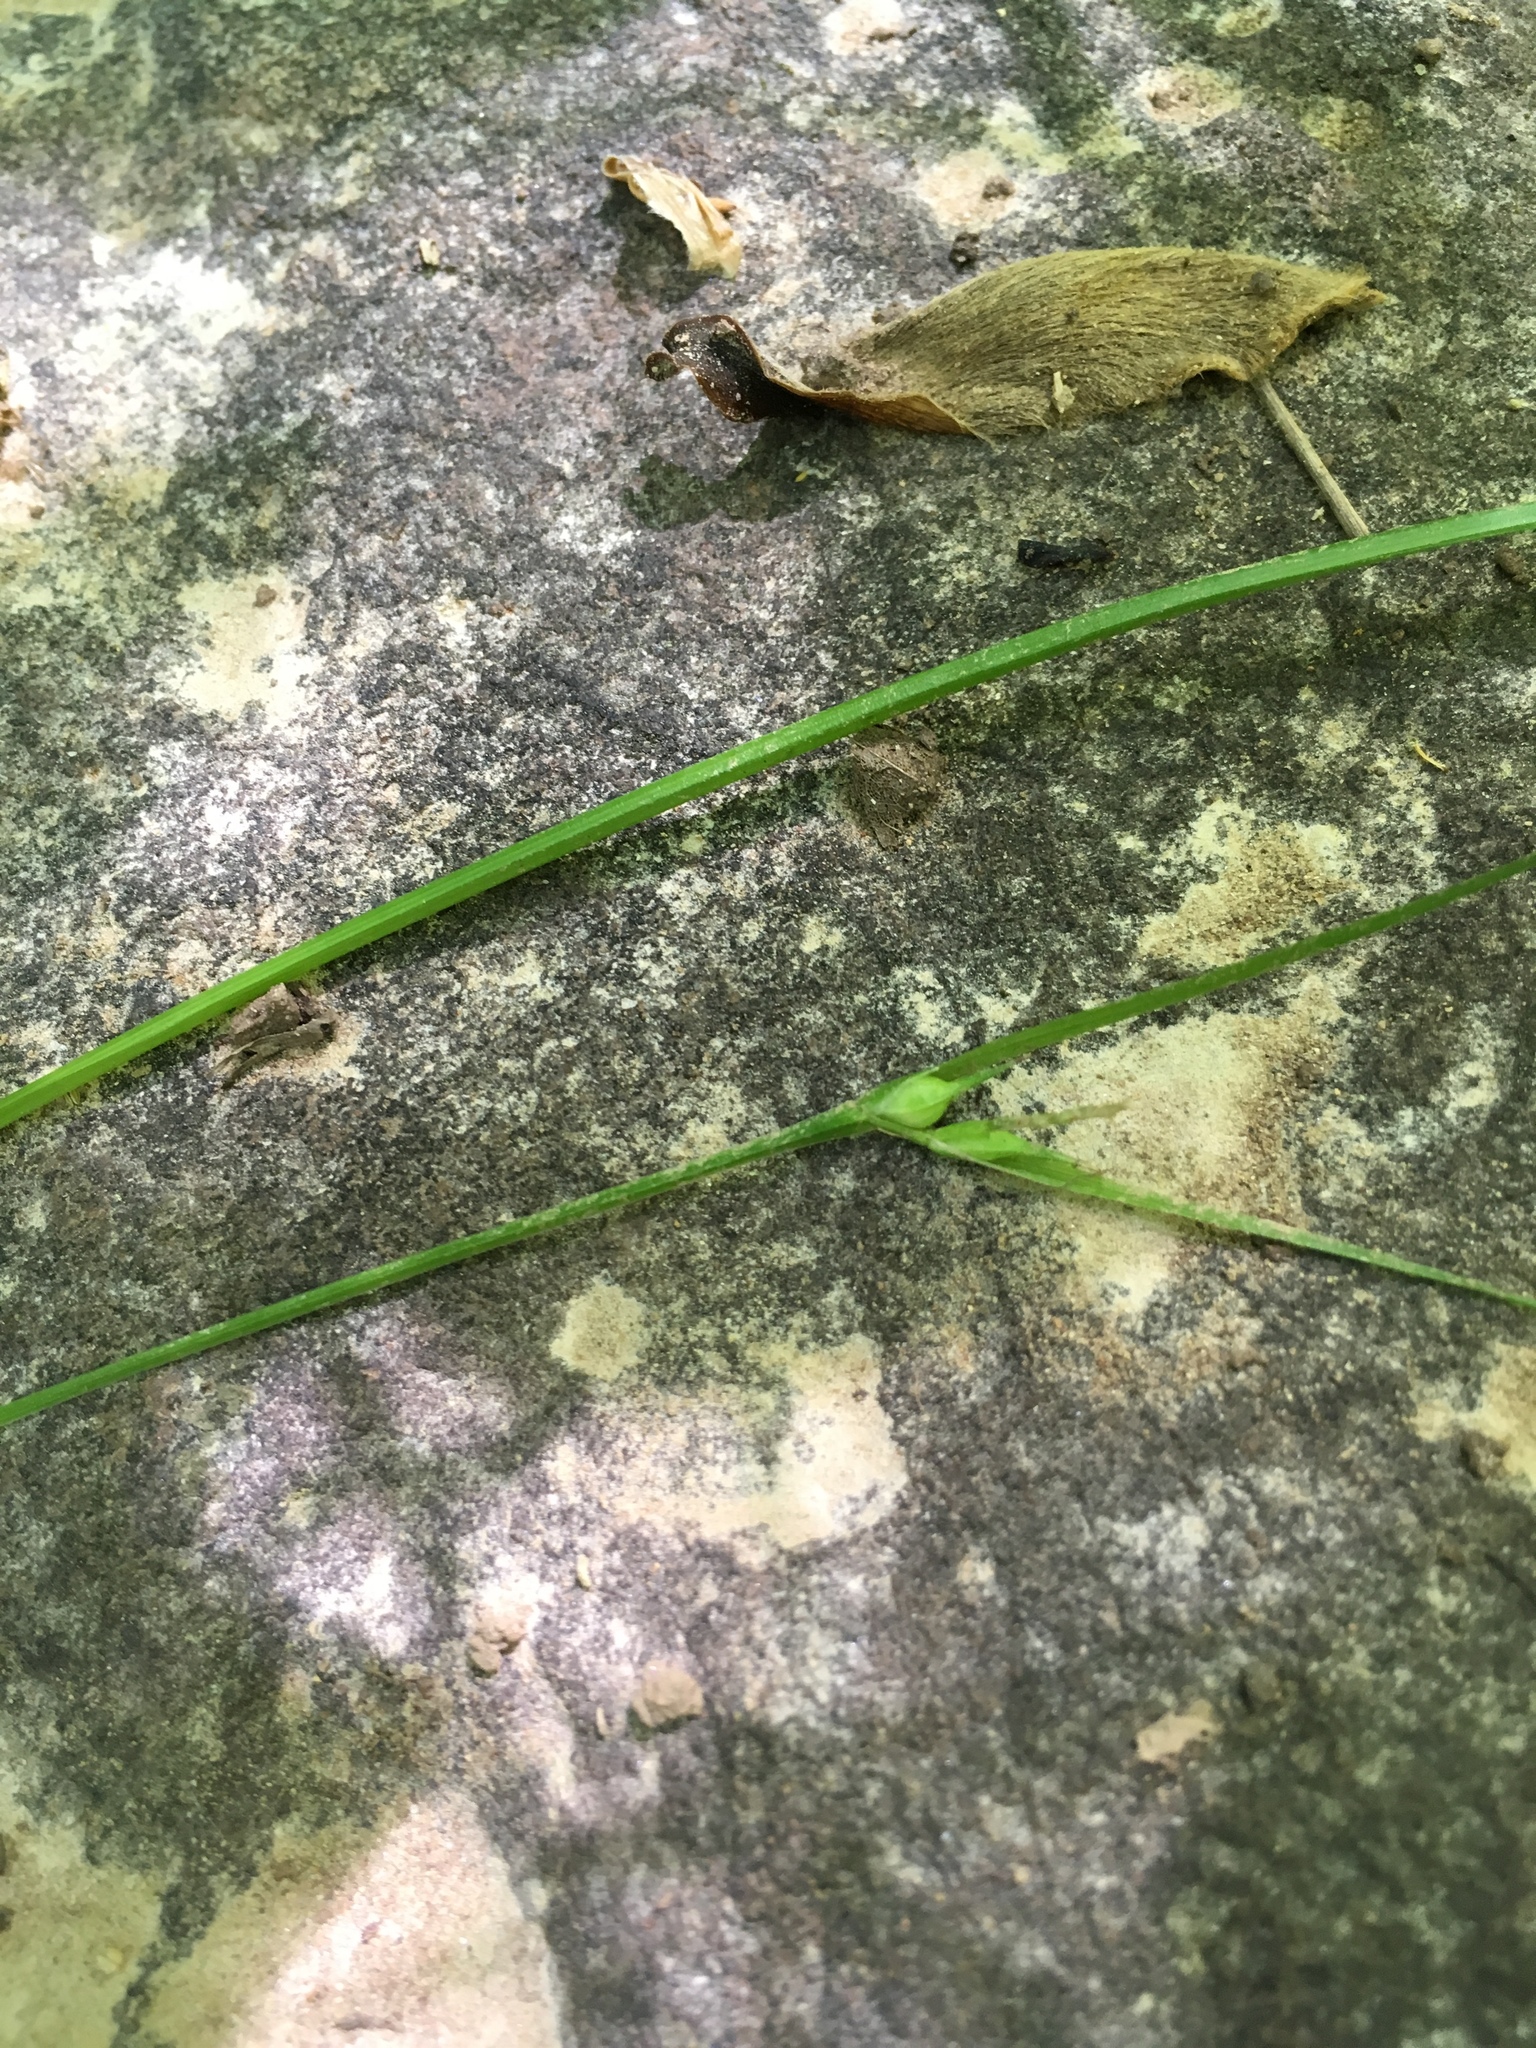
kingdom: Plantae
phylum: Tracheophyta
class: Liliopsida
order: Poales
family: Cyperaceae
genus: Carex
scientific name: Carex jamesii
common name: Grass sedge
